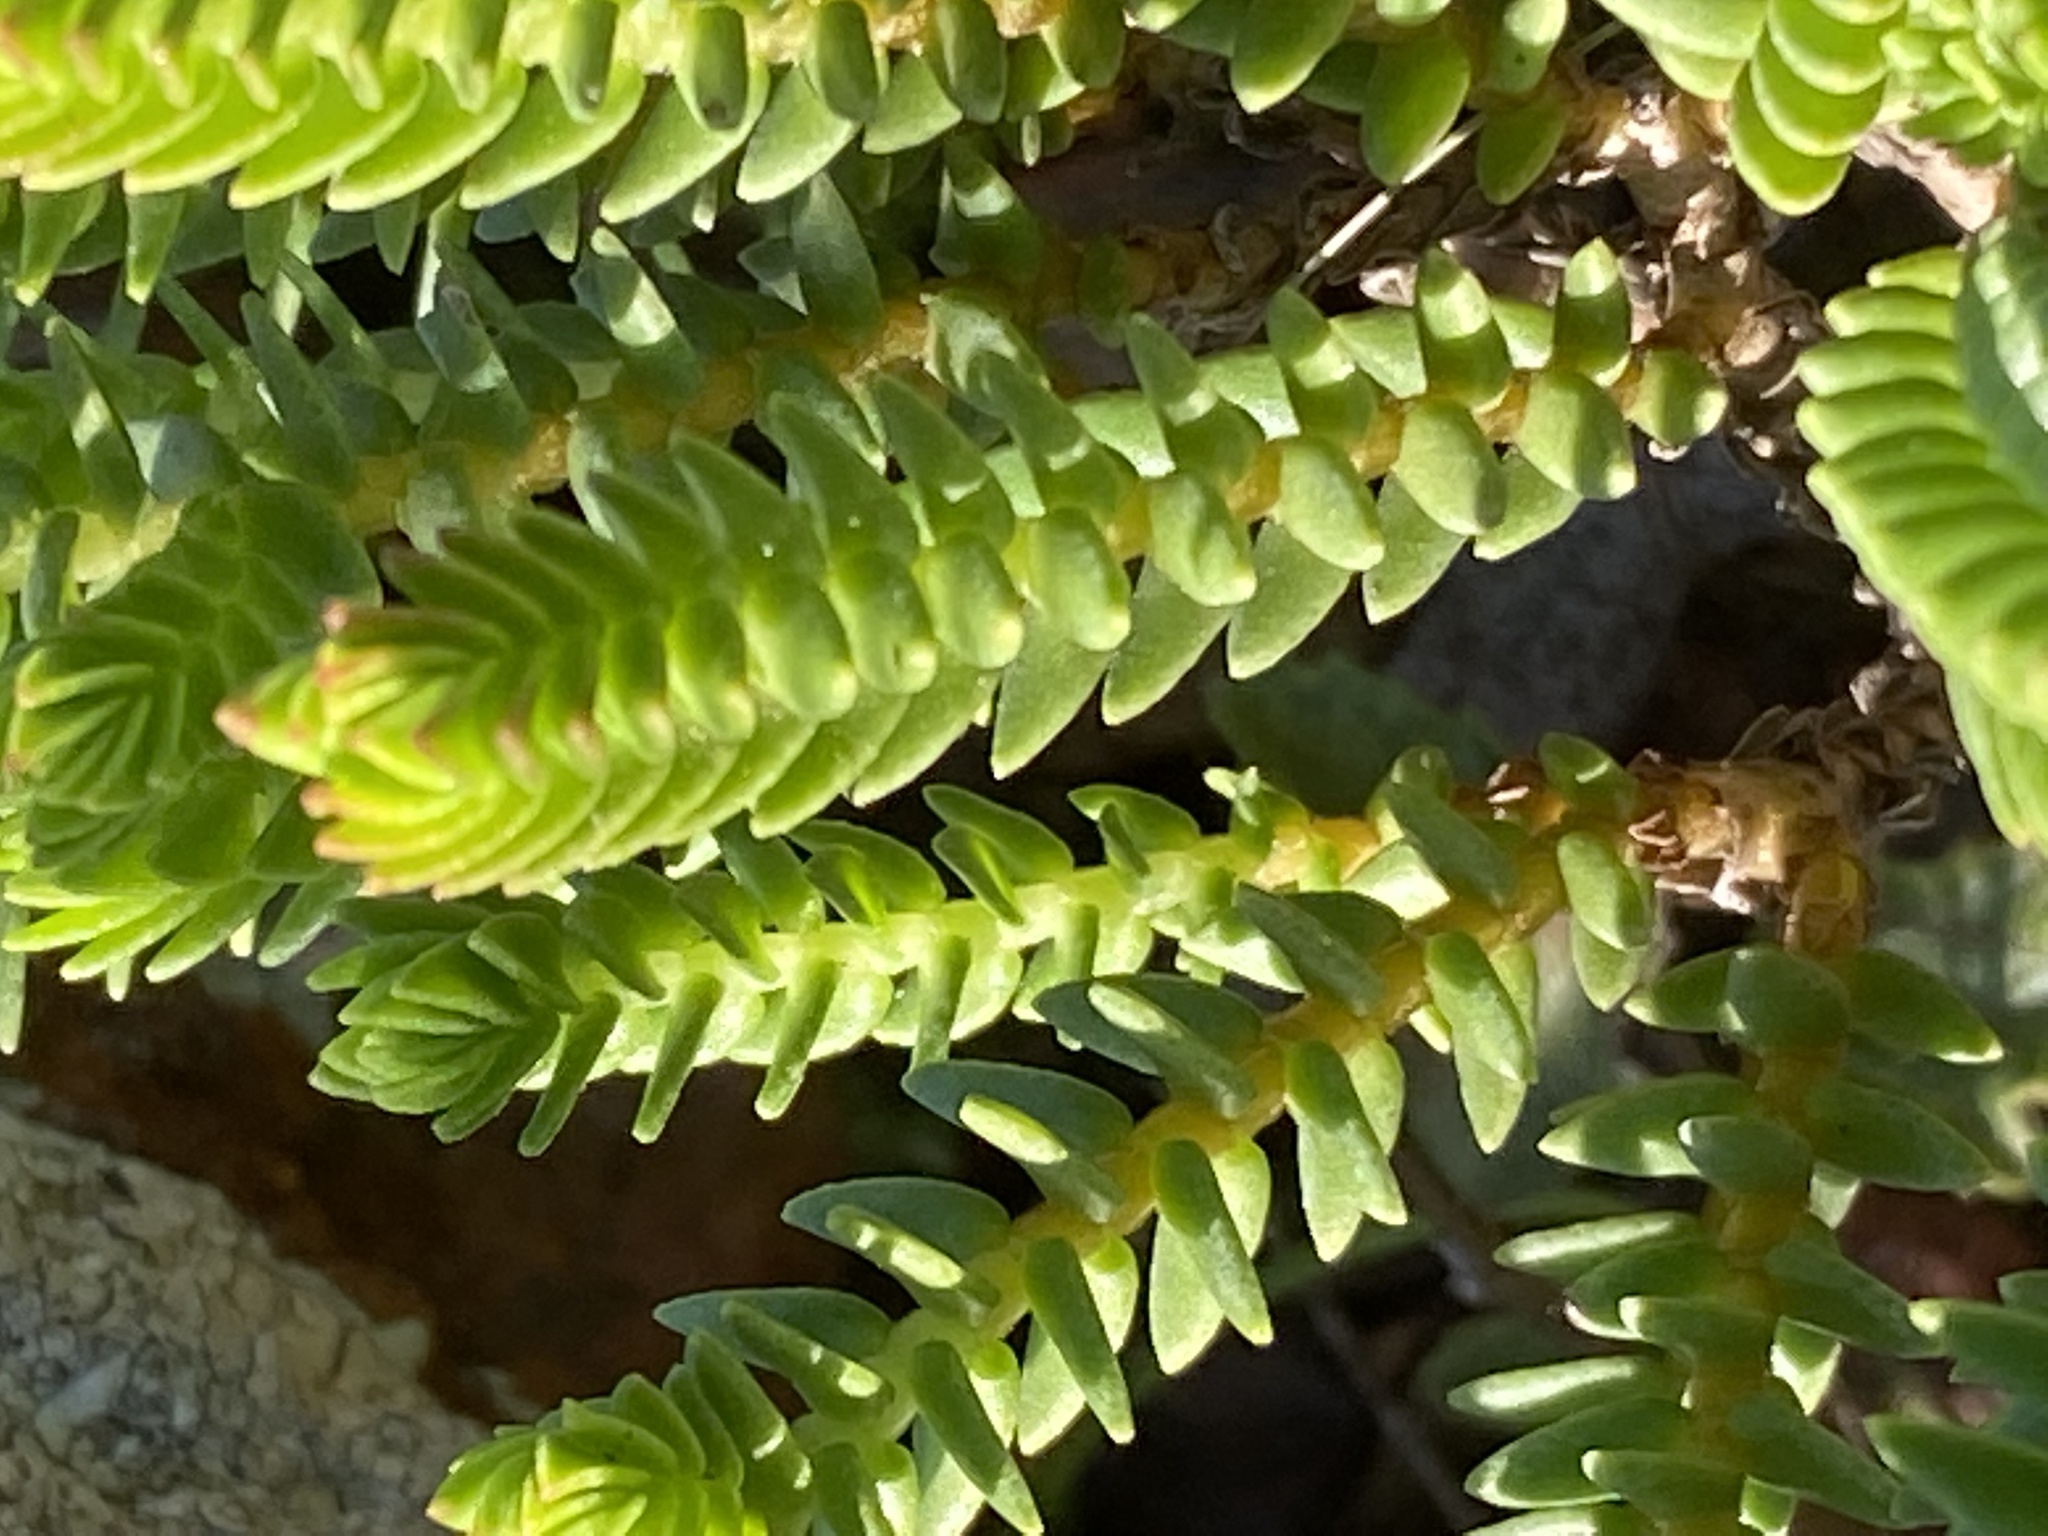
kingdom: Plantae
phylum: Tracheophyta
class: Magnoliopsida
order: Saxifragales
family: Crassulaceae
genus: Crassula
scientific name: Crassula ericoides
